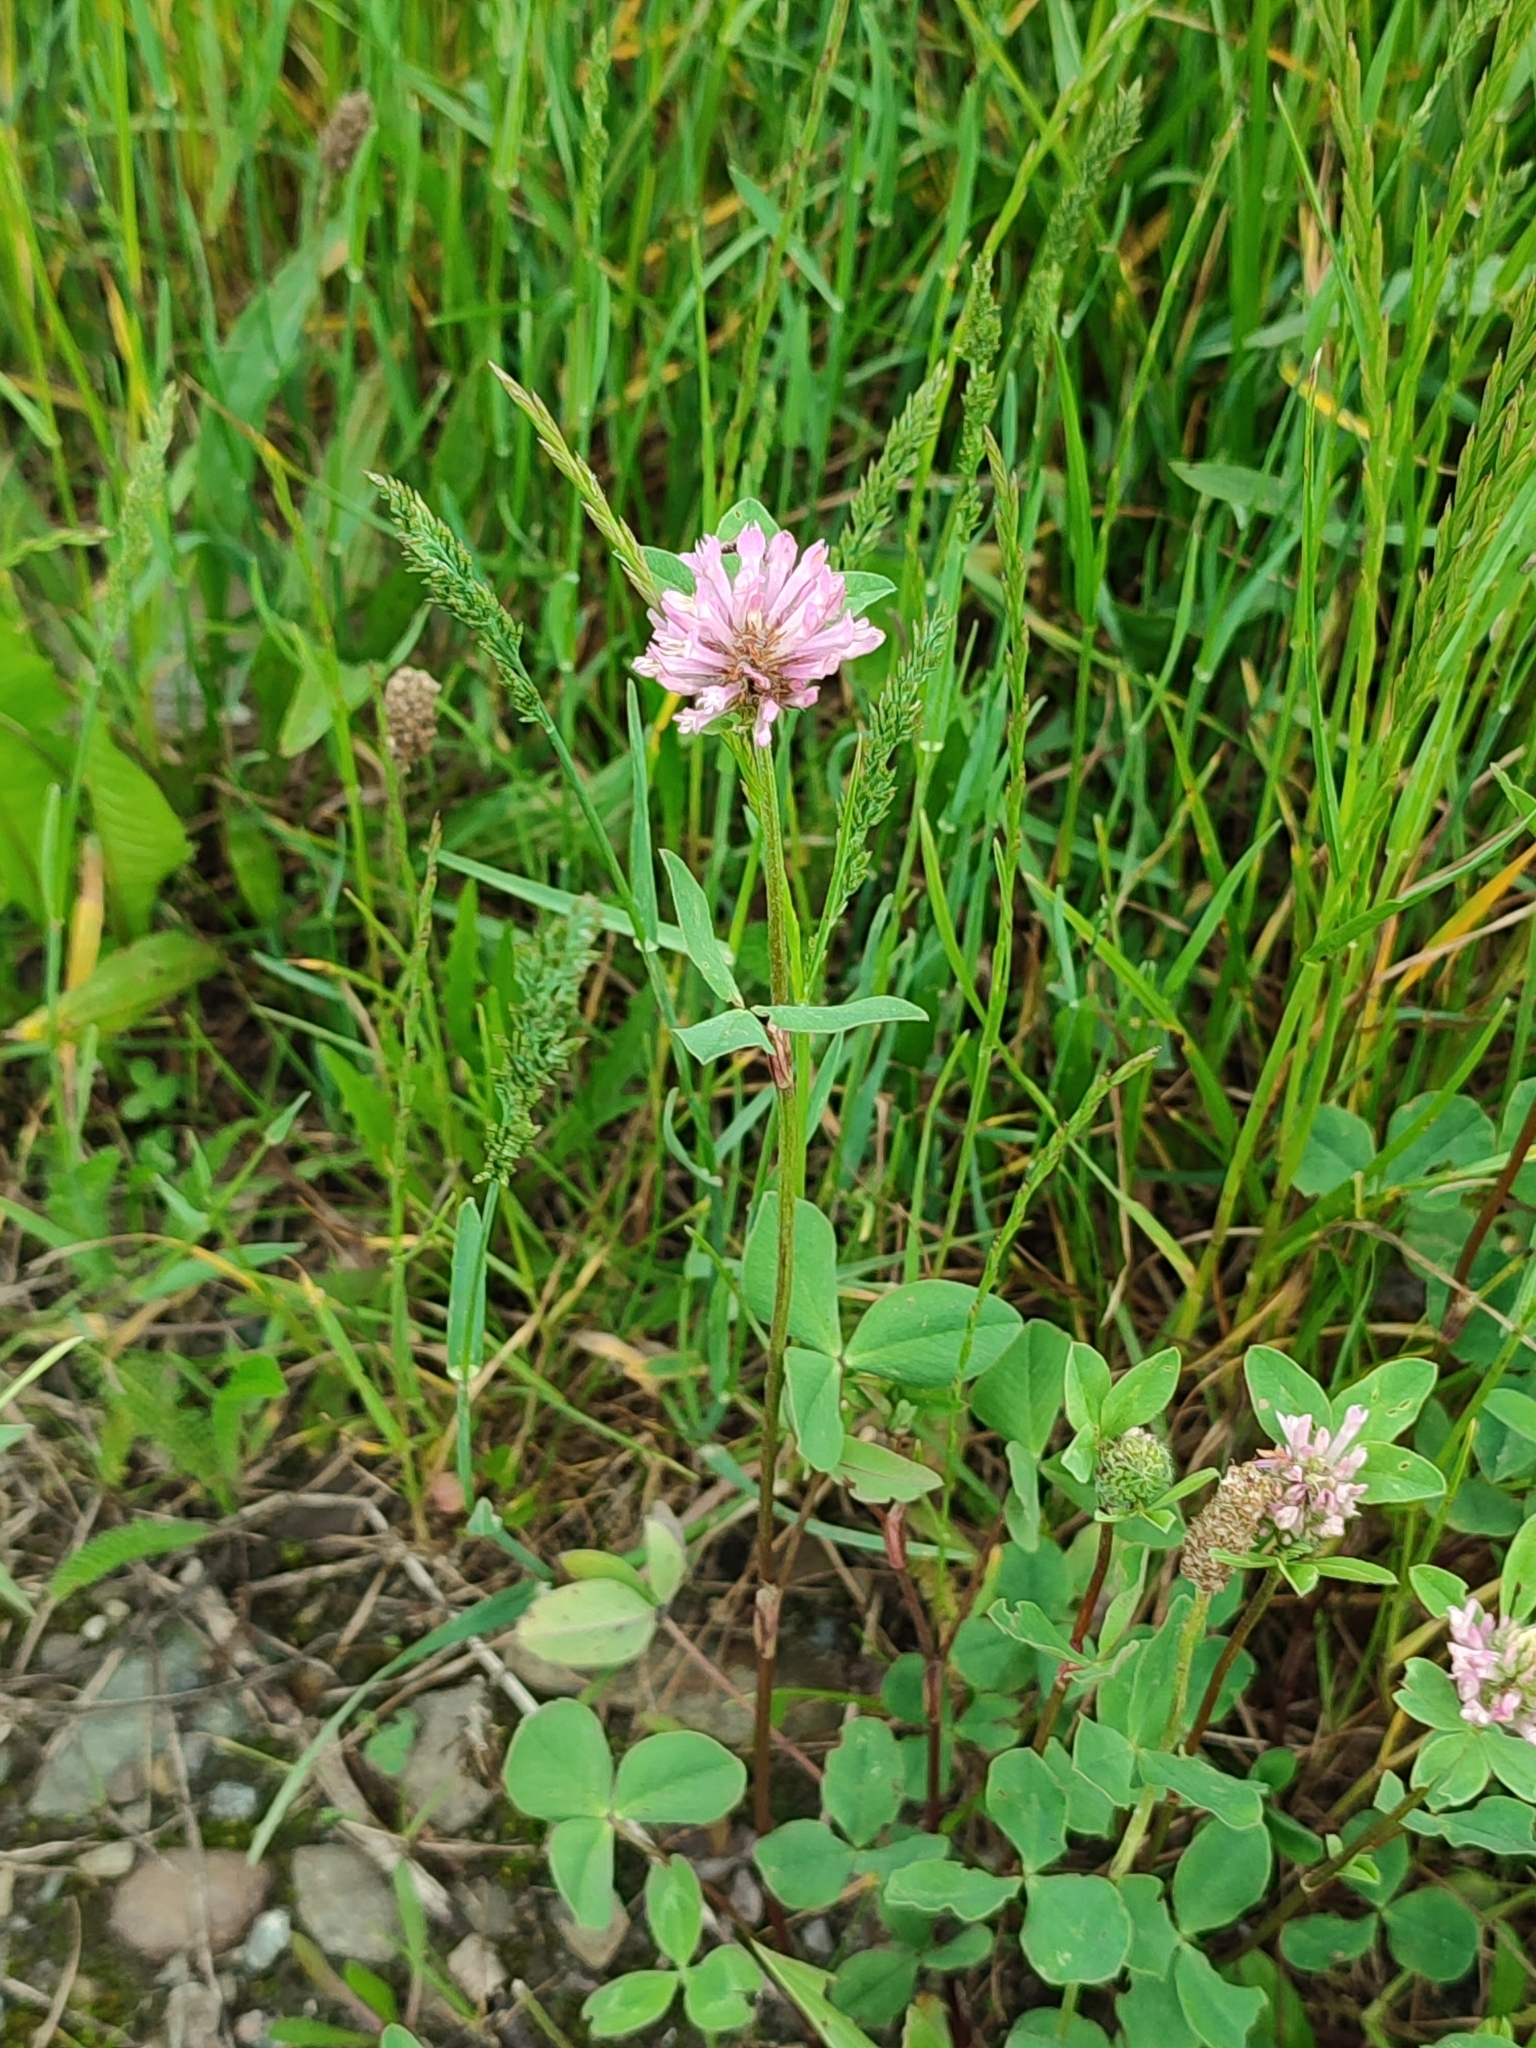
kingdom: Plantae
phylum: Tracheophyta
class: Magnoliopsida
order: Fabales
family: Fabaceae
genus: Trifolium
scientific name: Trifolium pratense
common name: Red clover
